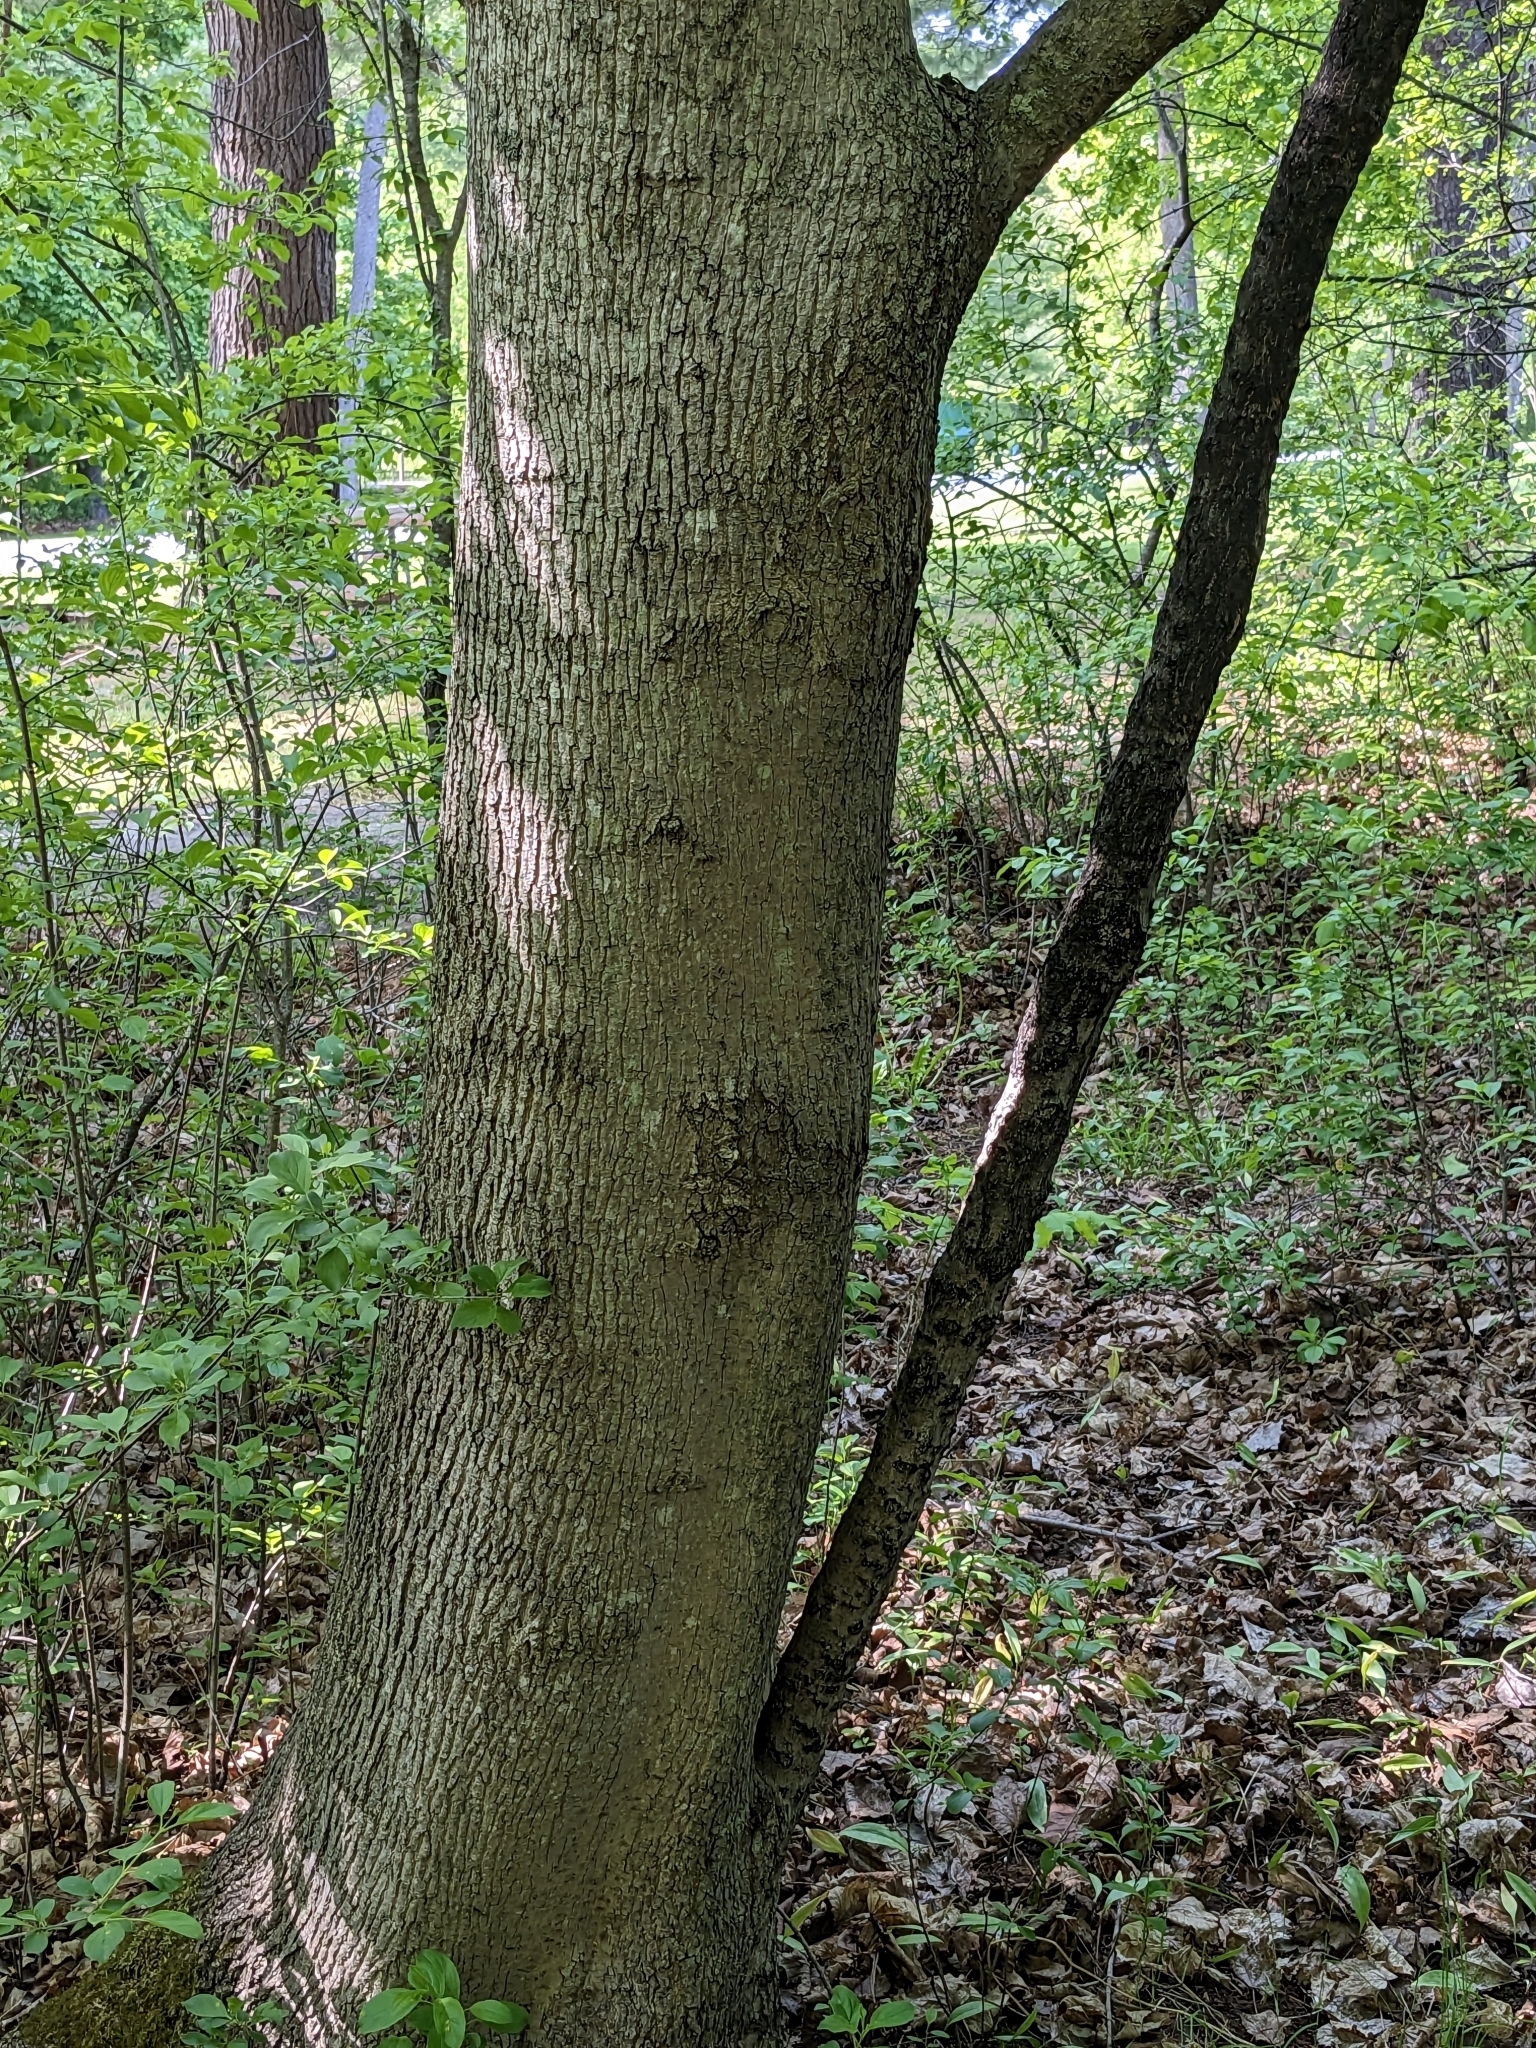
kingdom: Plantae
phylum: Tracheophyta
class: Magnoliopsida
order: Sapindales
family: Sapindaceae
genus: Acer
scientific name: Acer platanoides
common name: Norway maple
